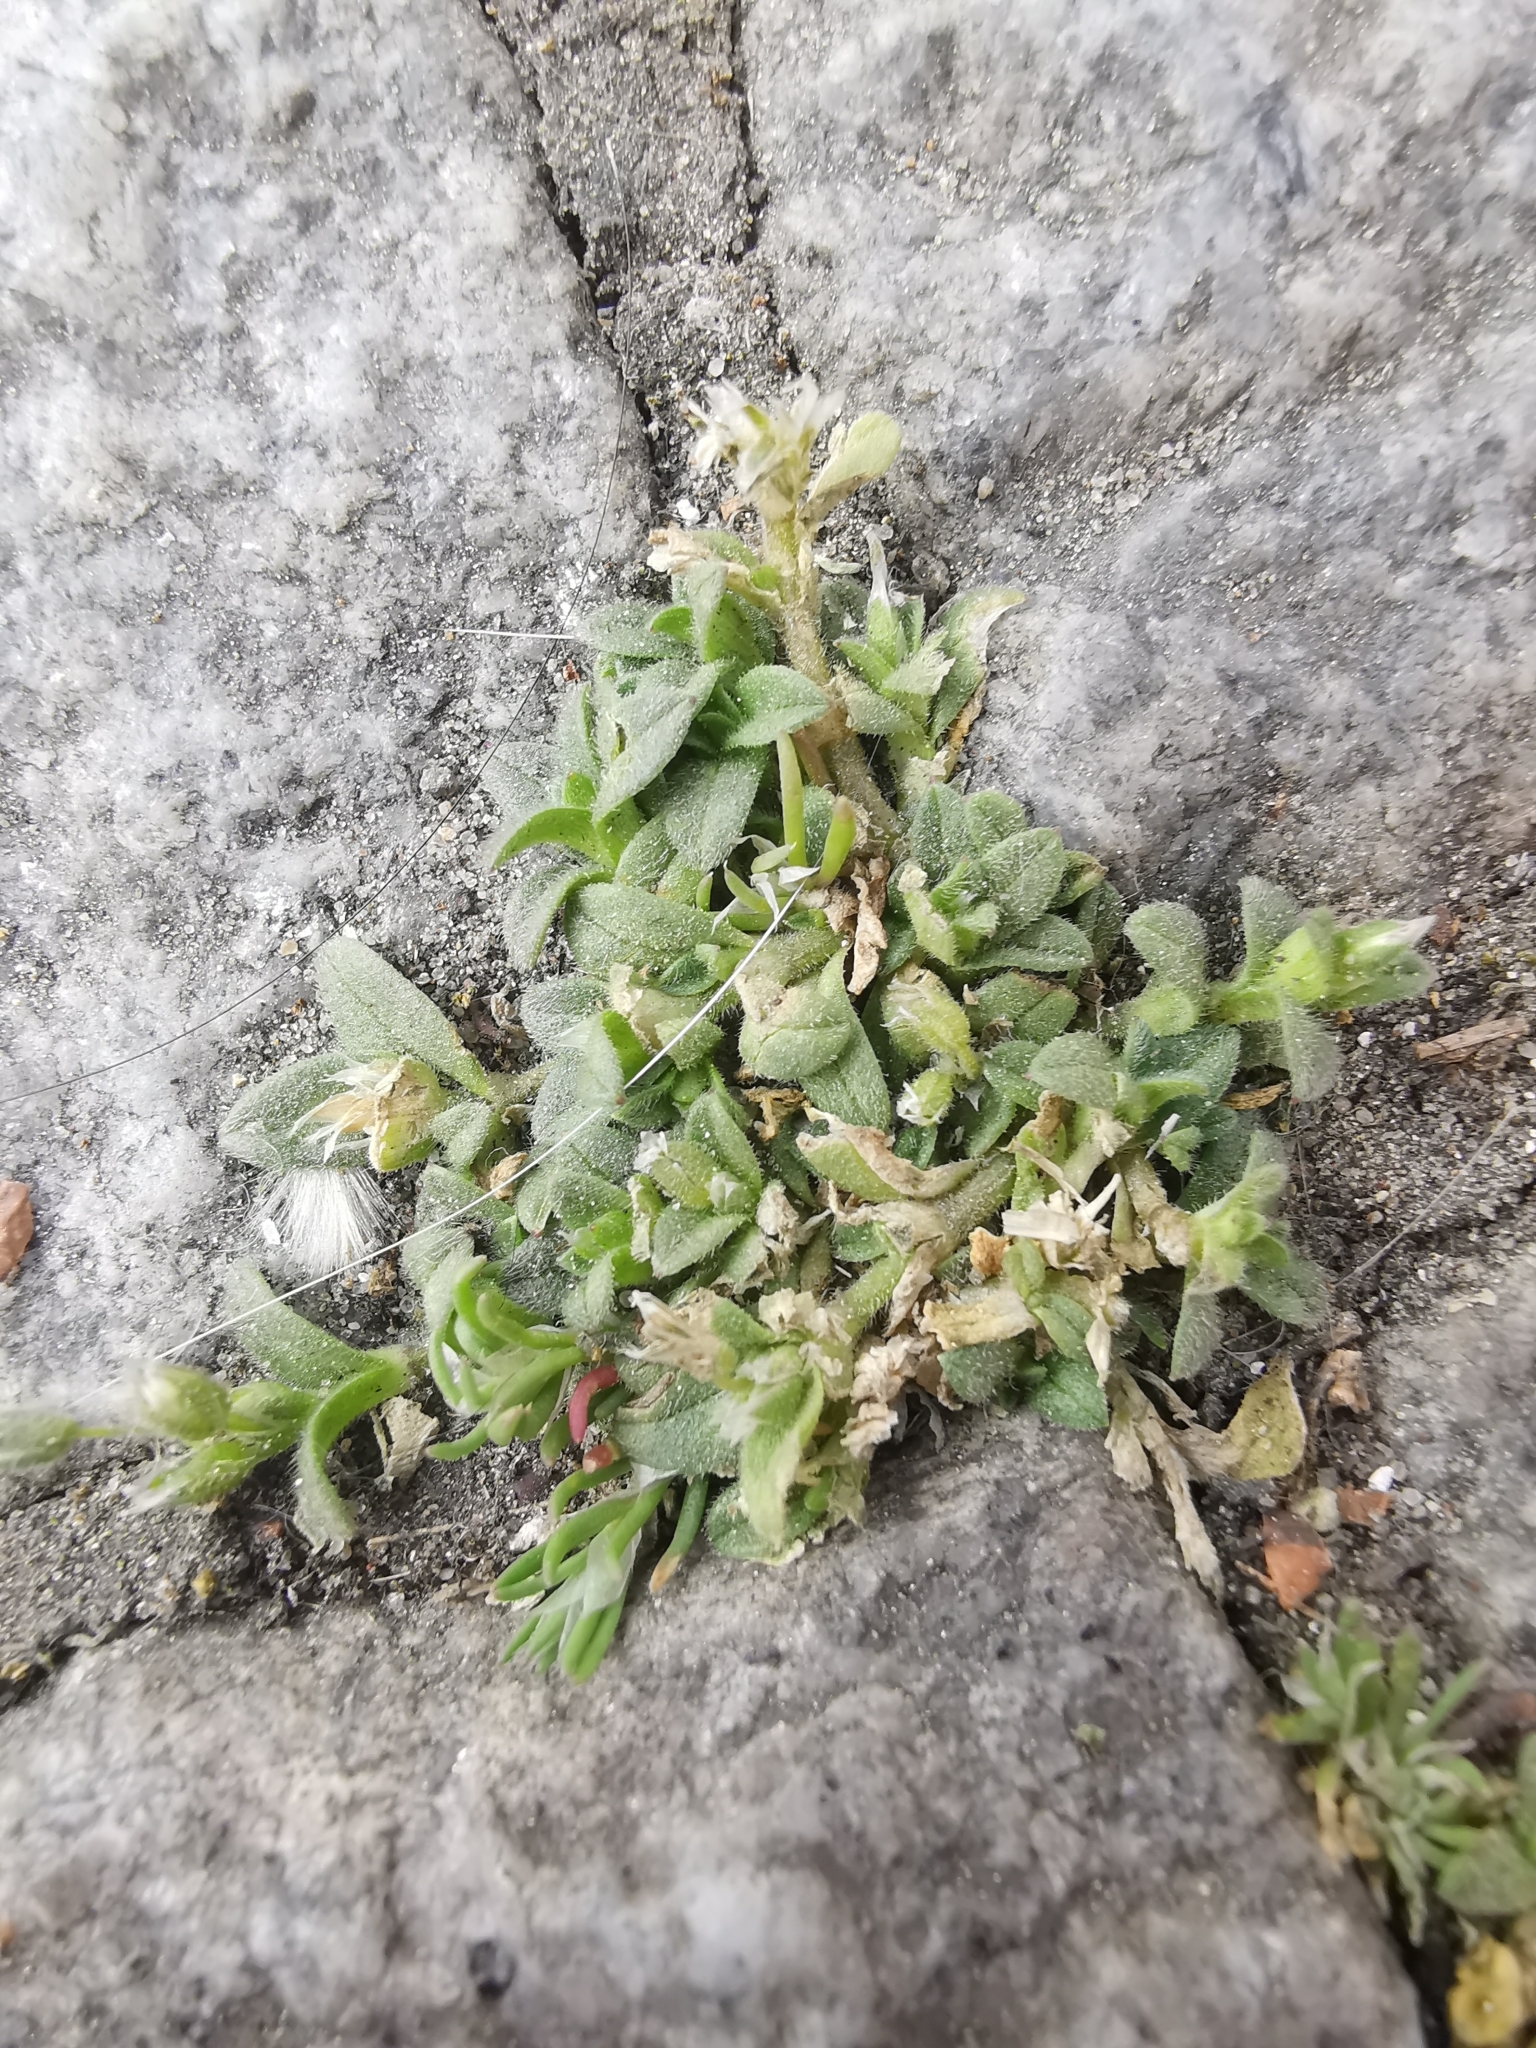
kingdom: Plantae
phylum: Tracheophyta
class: Magnoliopsida
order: Caryophyllales
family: Caryophyllaceae
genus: Cerastium
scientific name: Cerastium semidecandrum
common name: Little mouse-ear
